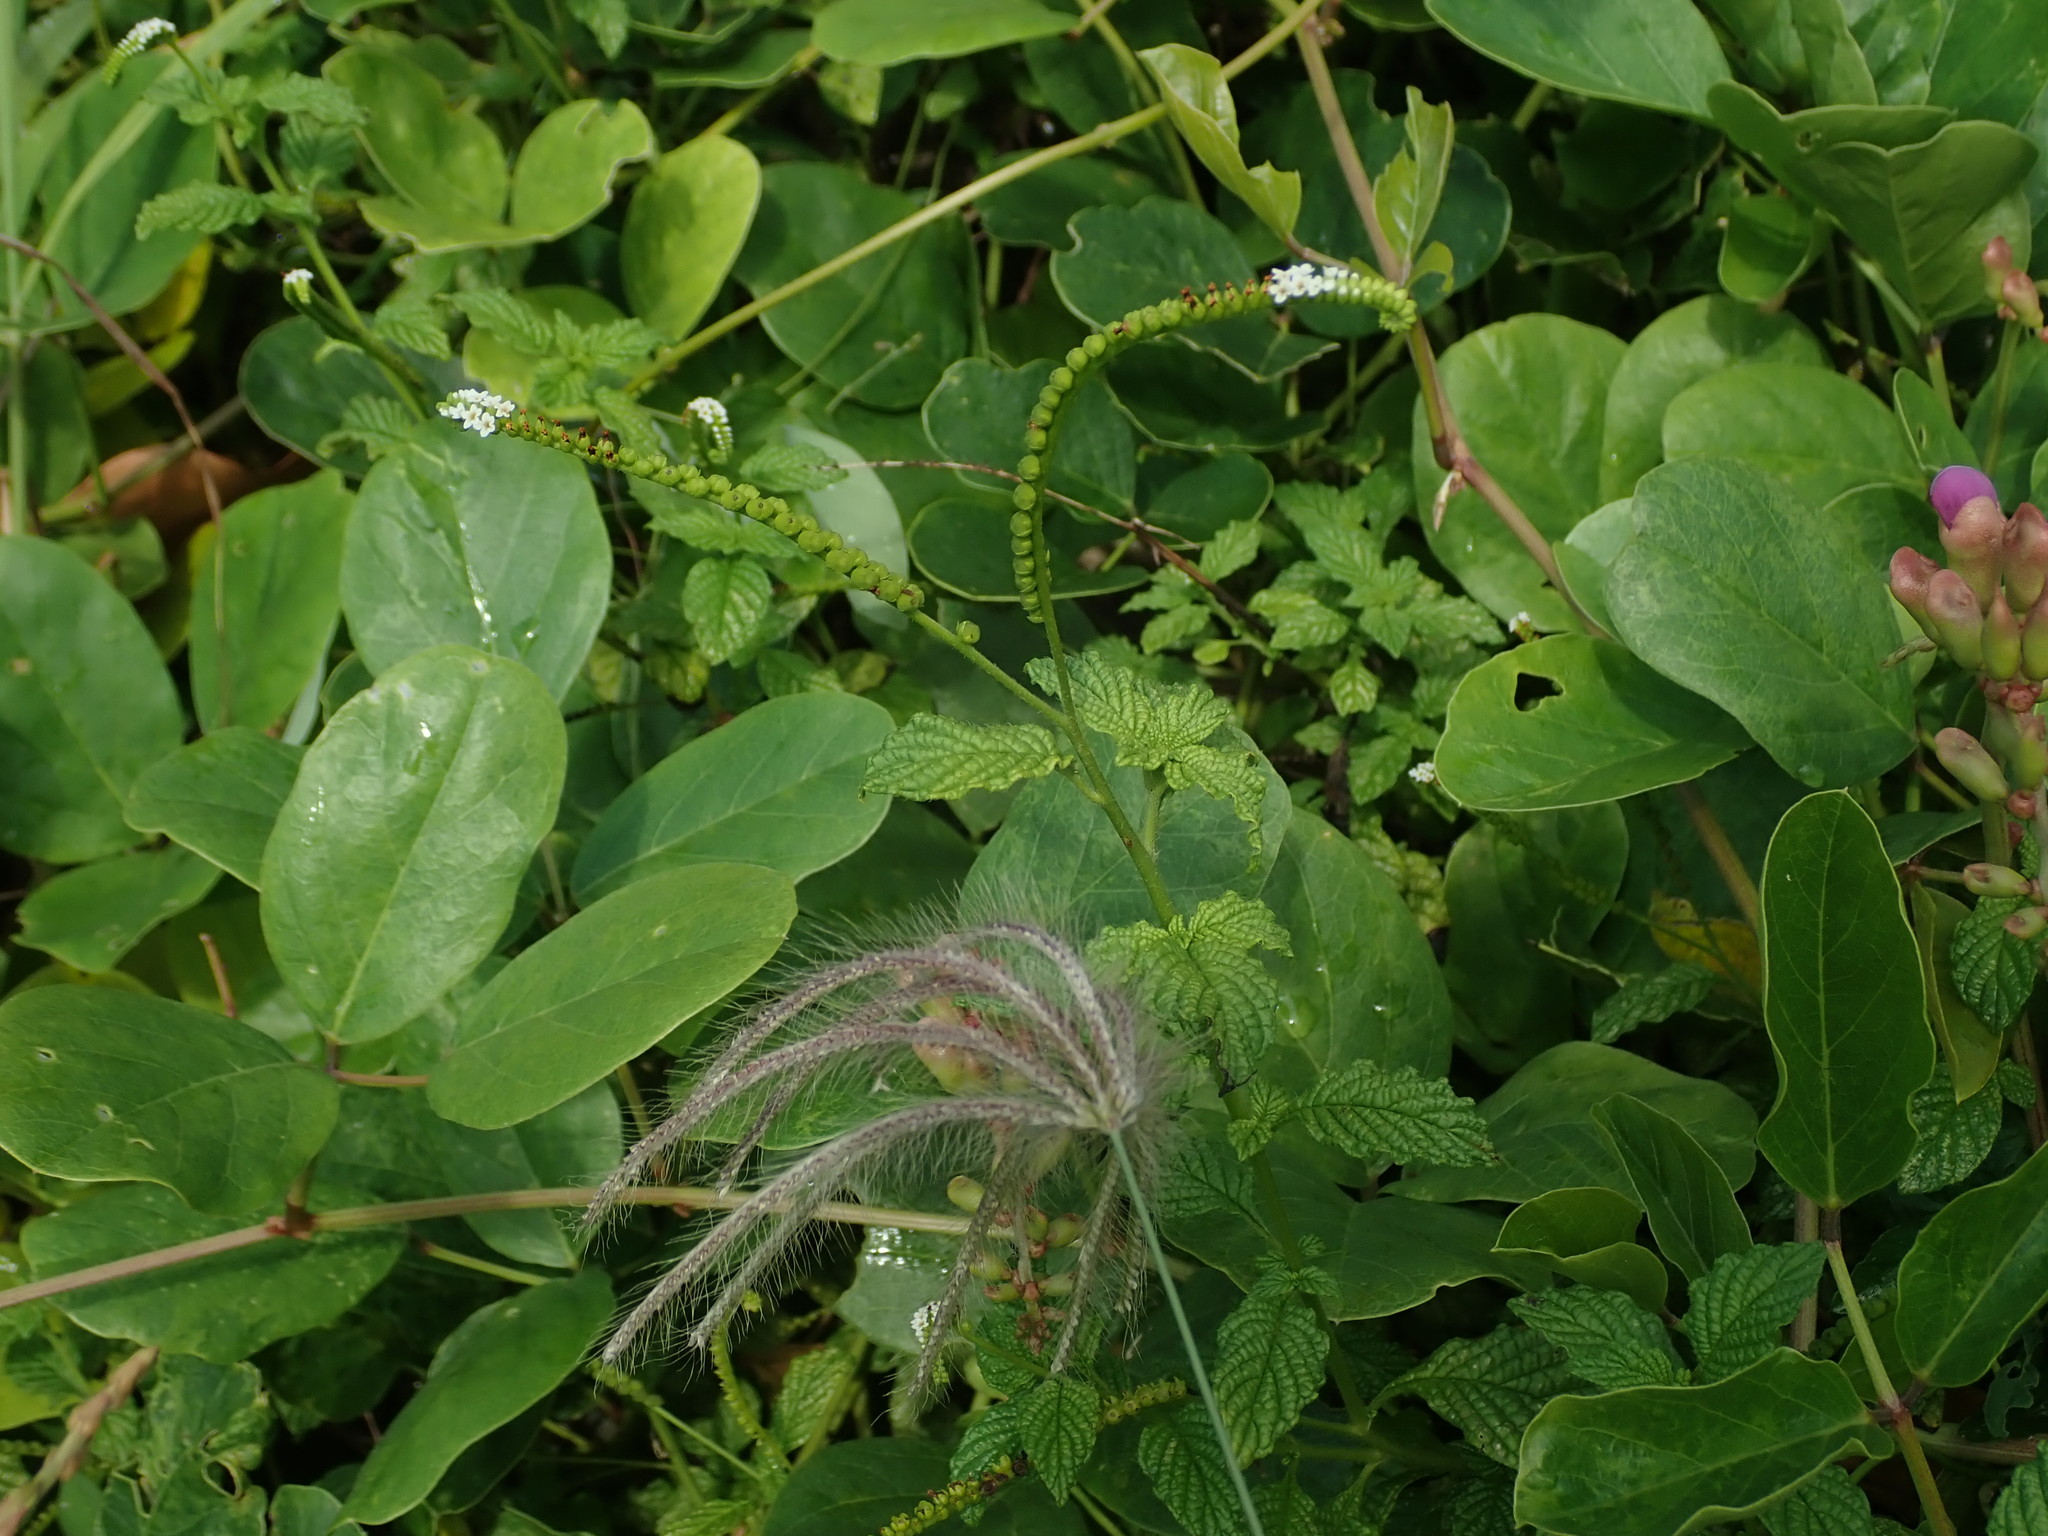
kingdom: Plantae
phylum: Tracheophyta
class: Magnoliopsida
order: Boraginales
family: Heliotropiaceae
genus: Heliotropium
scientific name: Heliotropium angiospermum
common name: Eye bright
